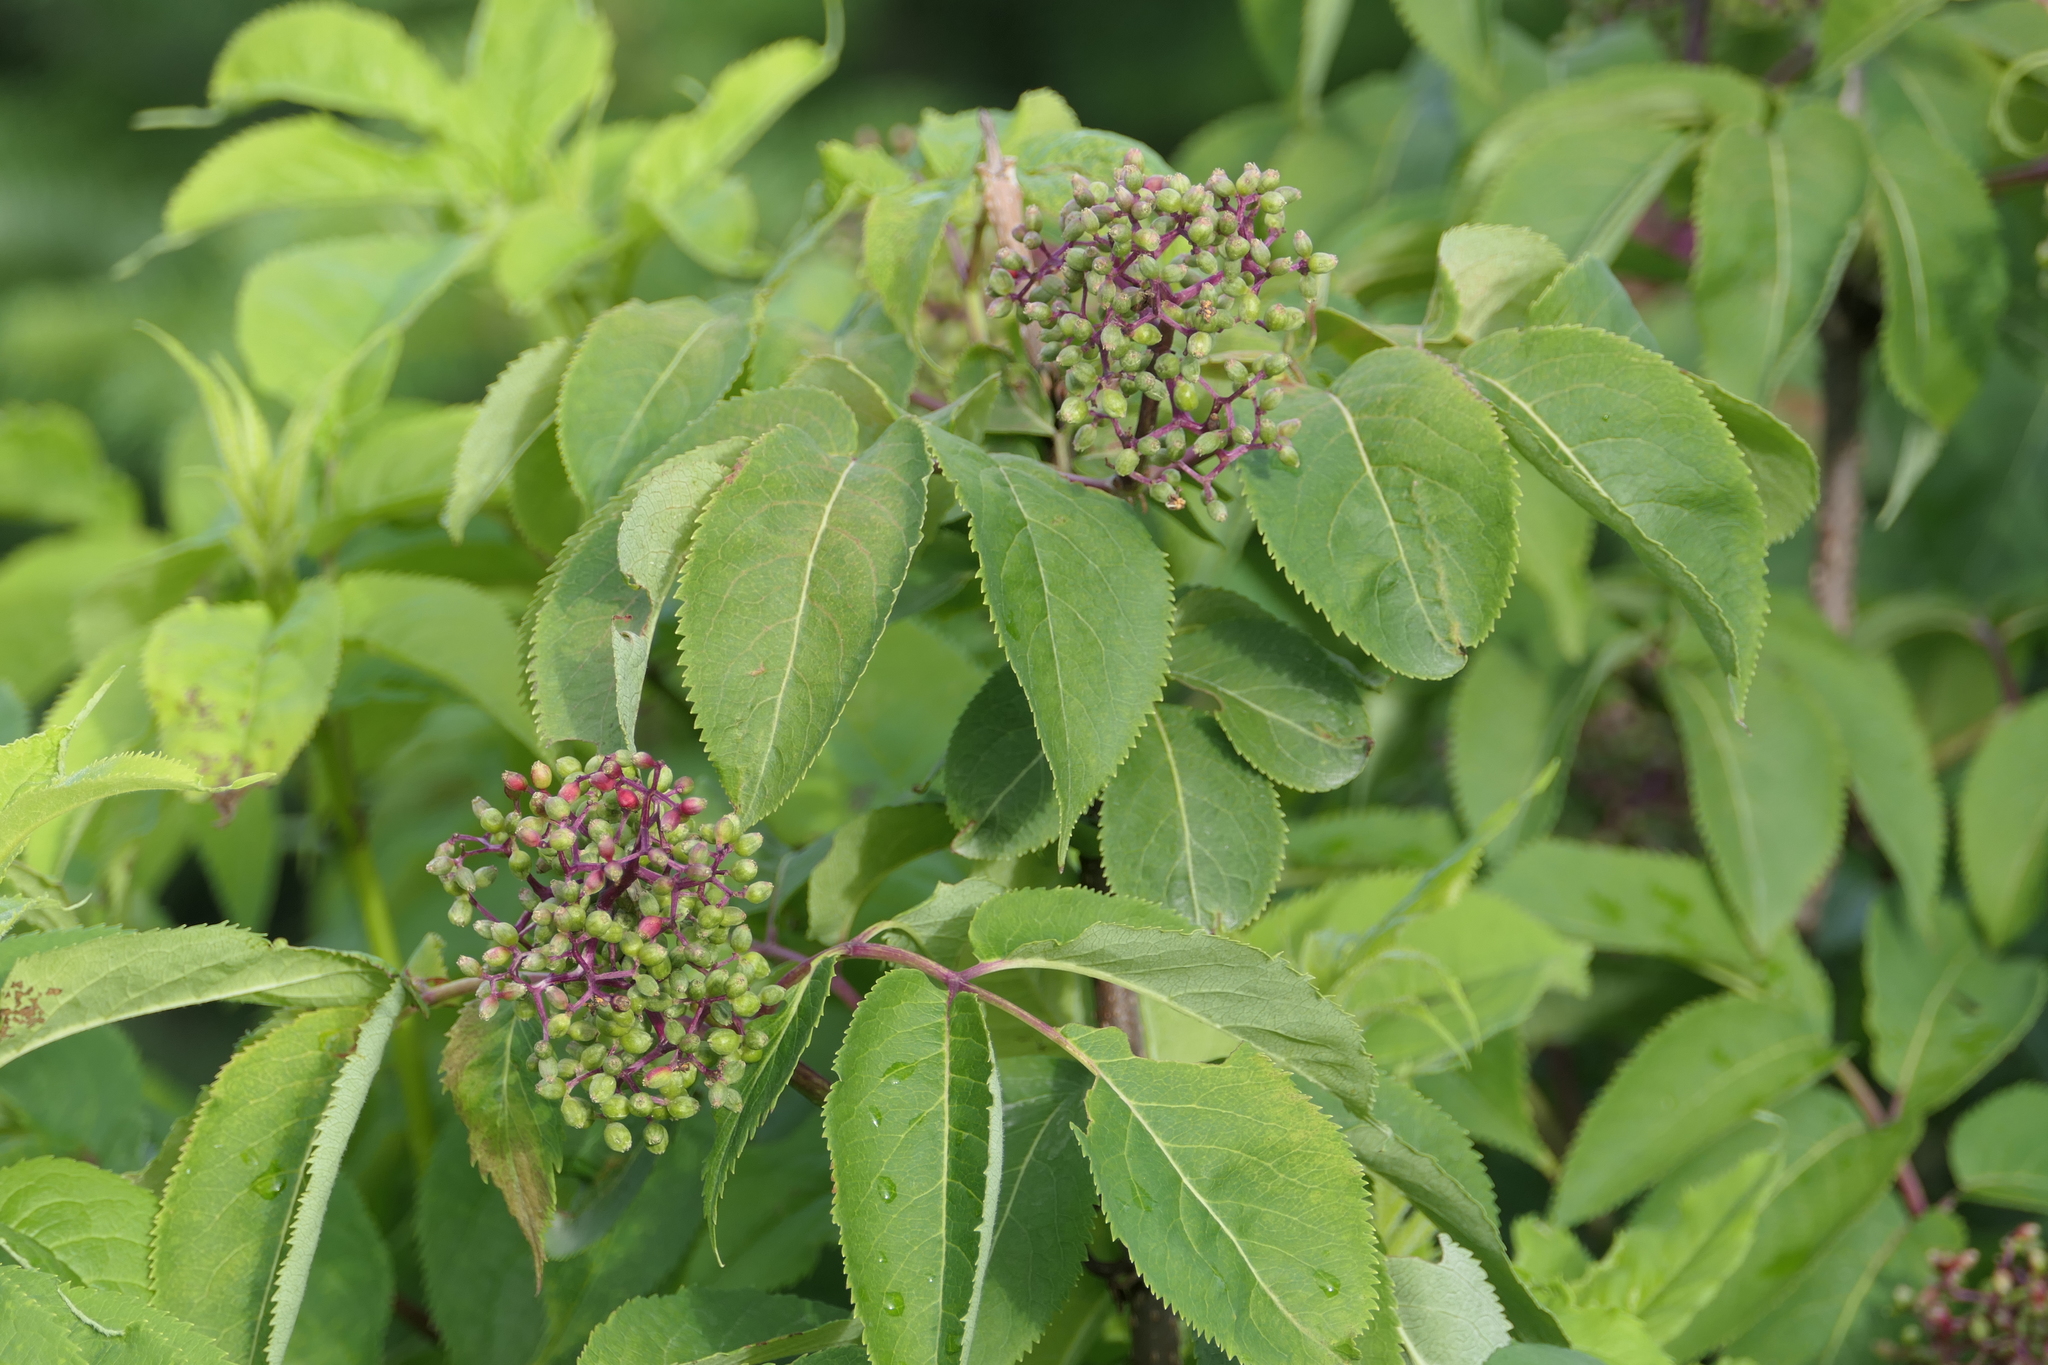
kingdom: Plantae
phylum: Tracheophyta
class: Magnoliopsida
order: Dipsacales
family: Viburnaceae
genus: Sambucus
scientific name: Sambucus racemosa
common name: Red-berried elder
